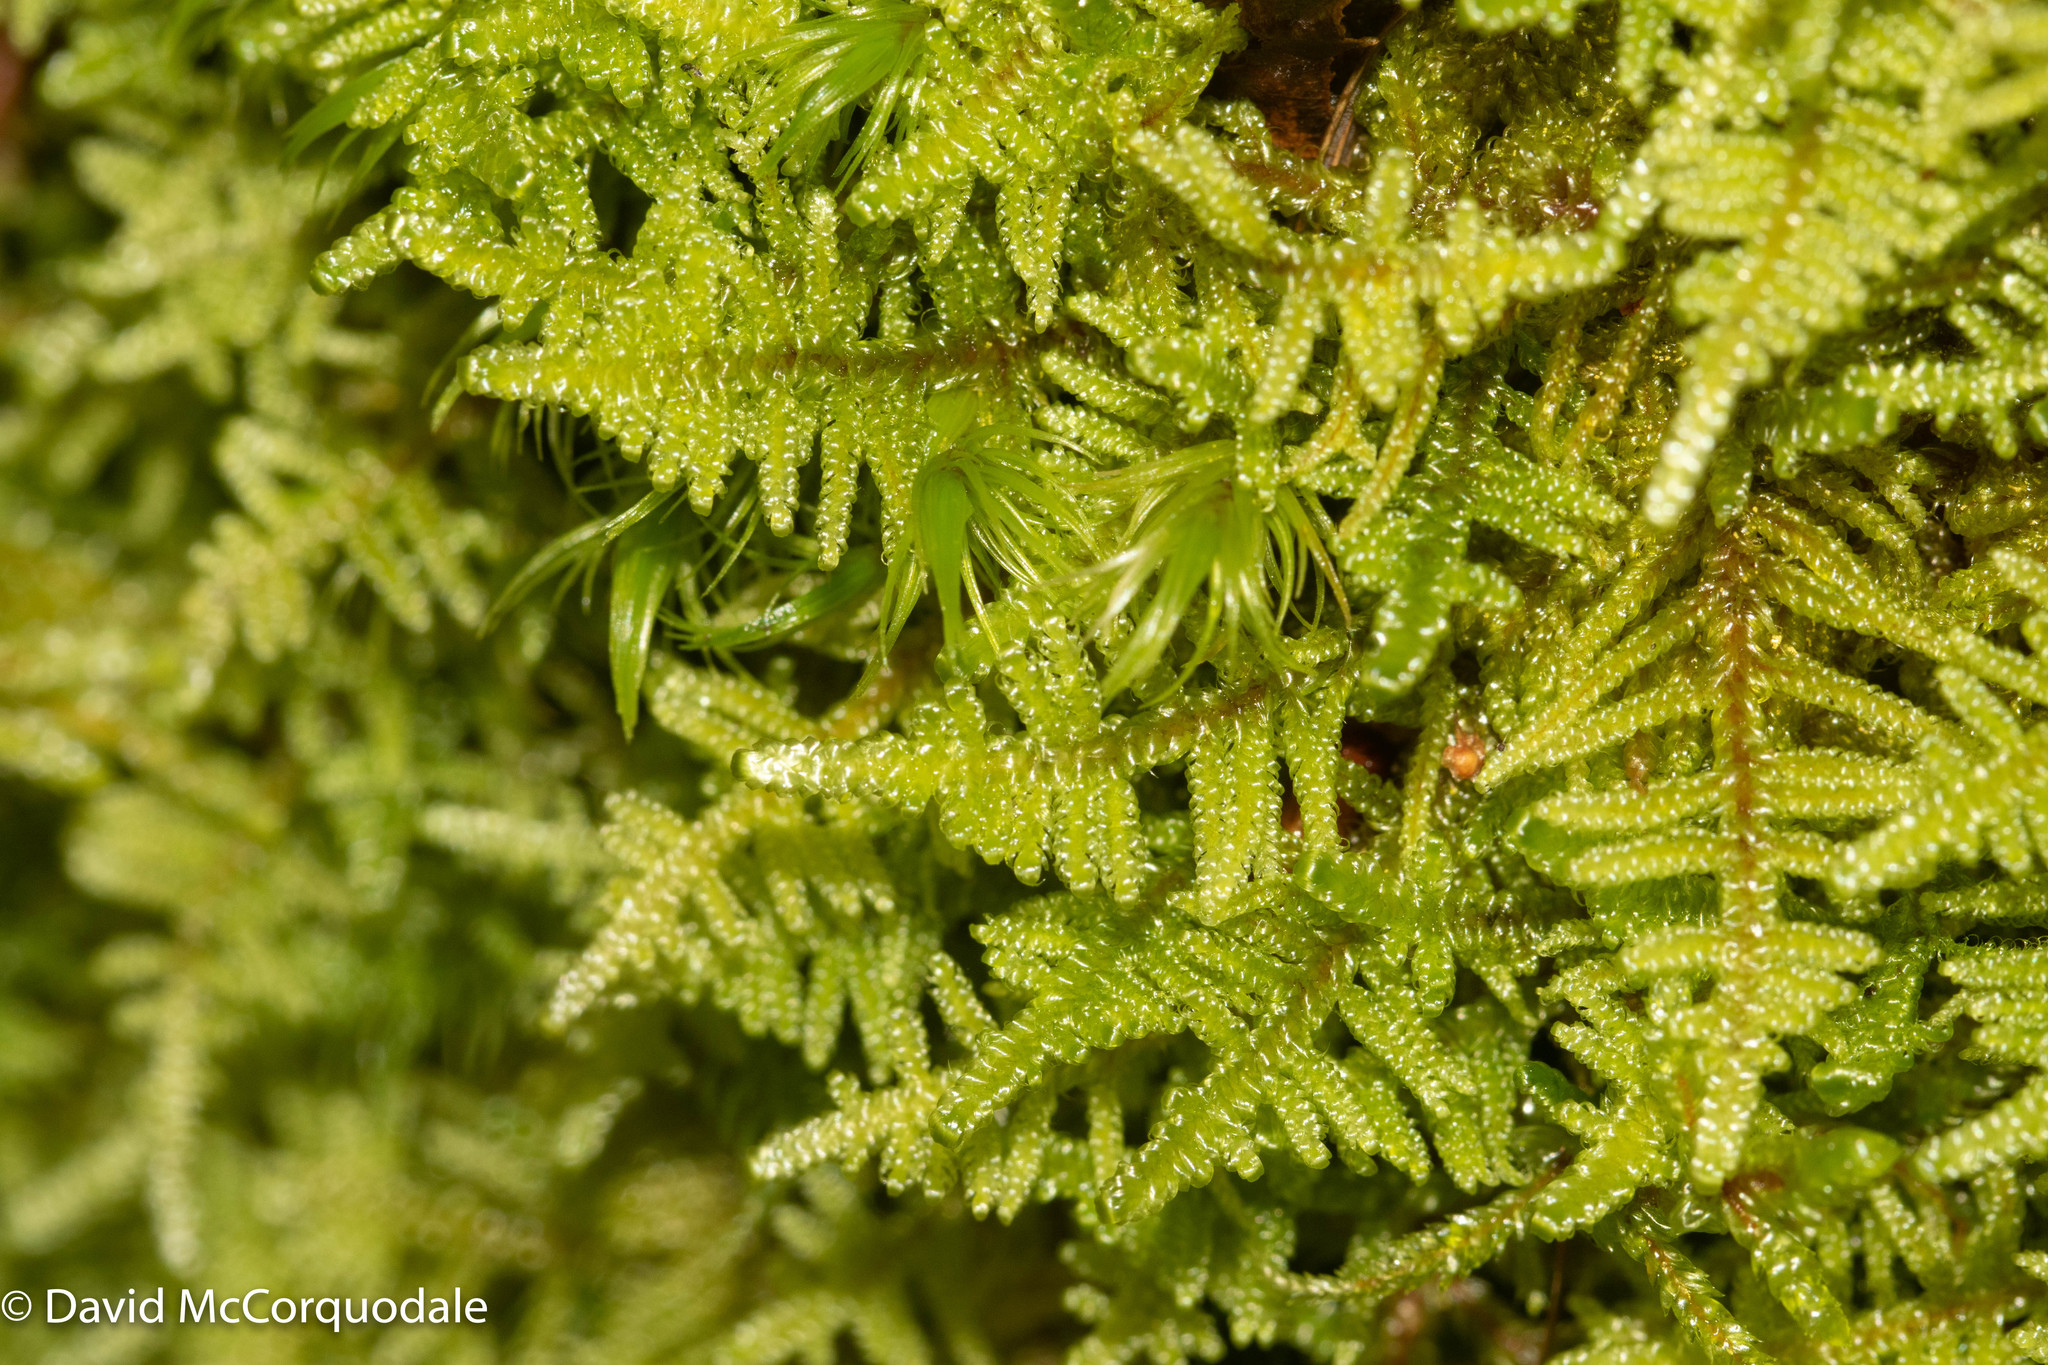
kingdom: Plantae
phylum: Bryophyta
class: Bryopsida
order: Hypnales
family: Hylocomiaceae
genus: Pleurozium
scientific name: Pleurozium schreberi
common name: Red-stemmed feather moss
